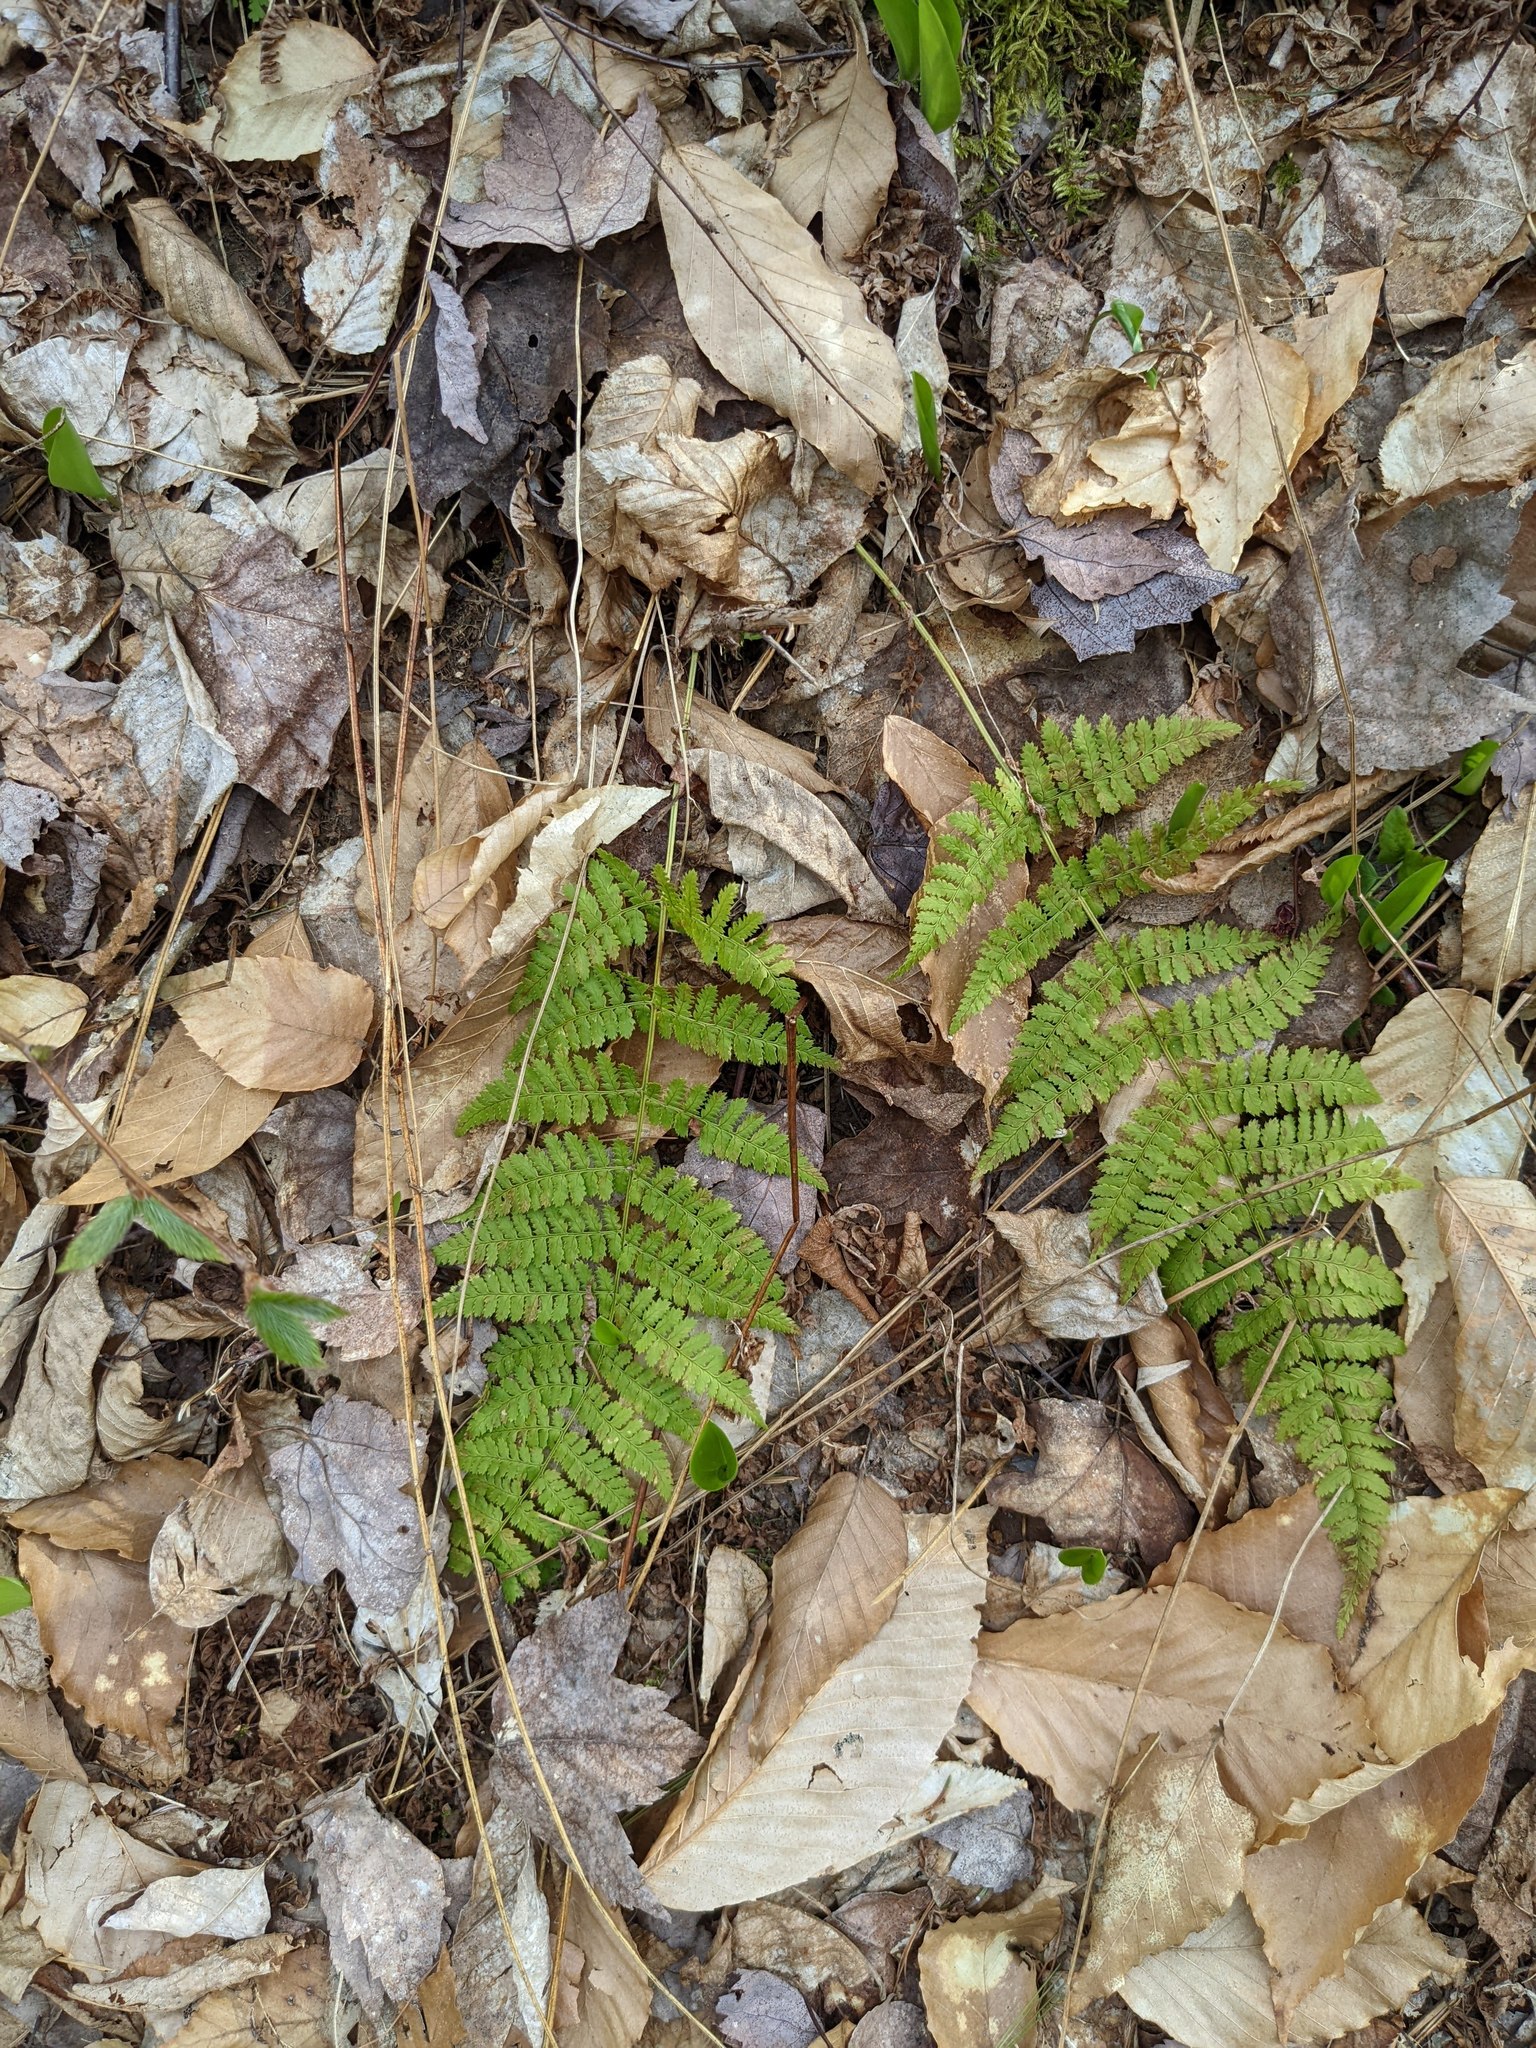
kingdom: Plantae
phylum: Tracheophyta
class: Magnoliopsida
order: Fagales
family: Fagaceae
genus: Fagus
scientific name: Fagus grandifolia
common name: American beech
